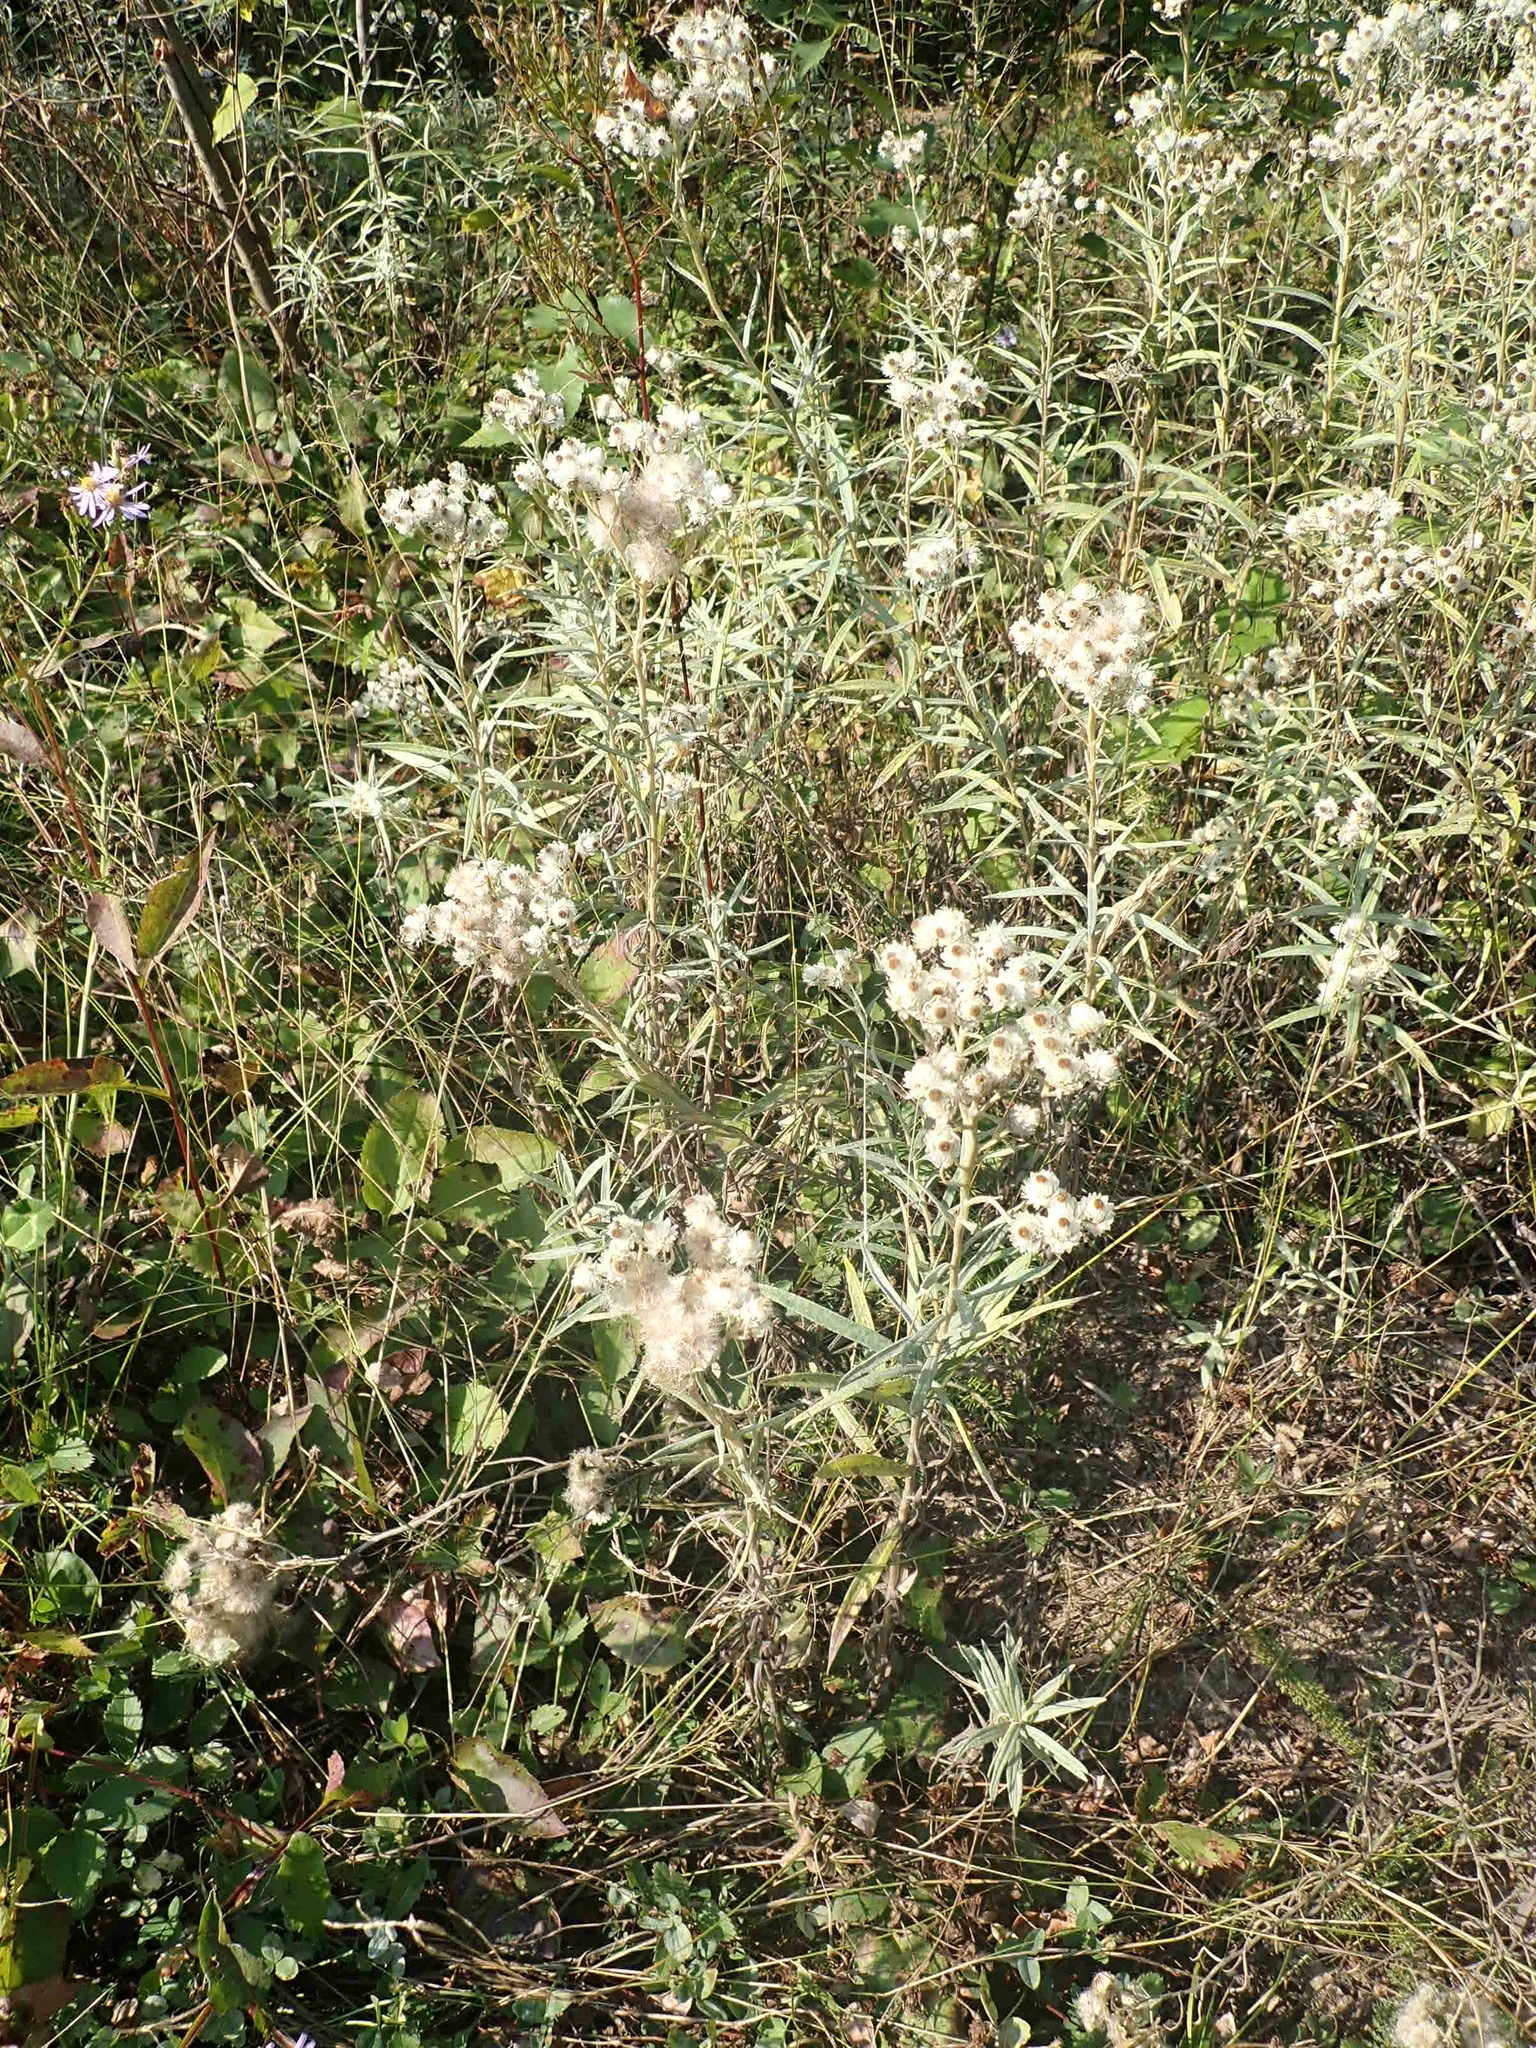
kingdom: Plantae
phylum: Tracheophyta
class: Magnoliopsida
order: Asterales
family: Asteraceae
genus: Anaphalis
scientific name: Anaphalis margaritacea
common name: Pearly everlasting
